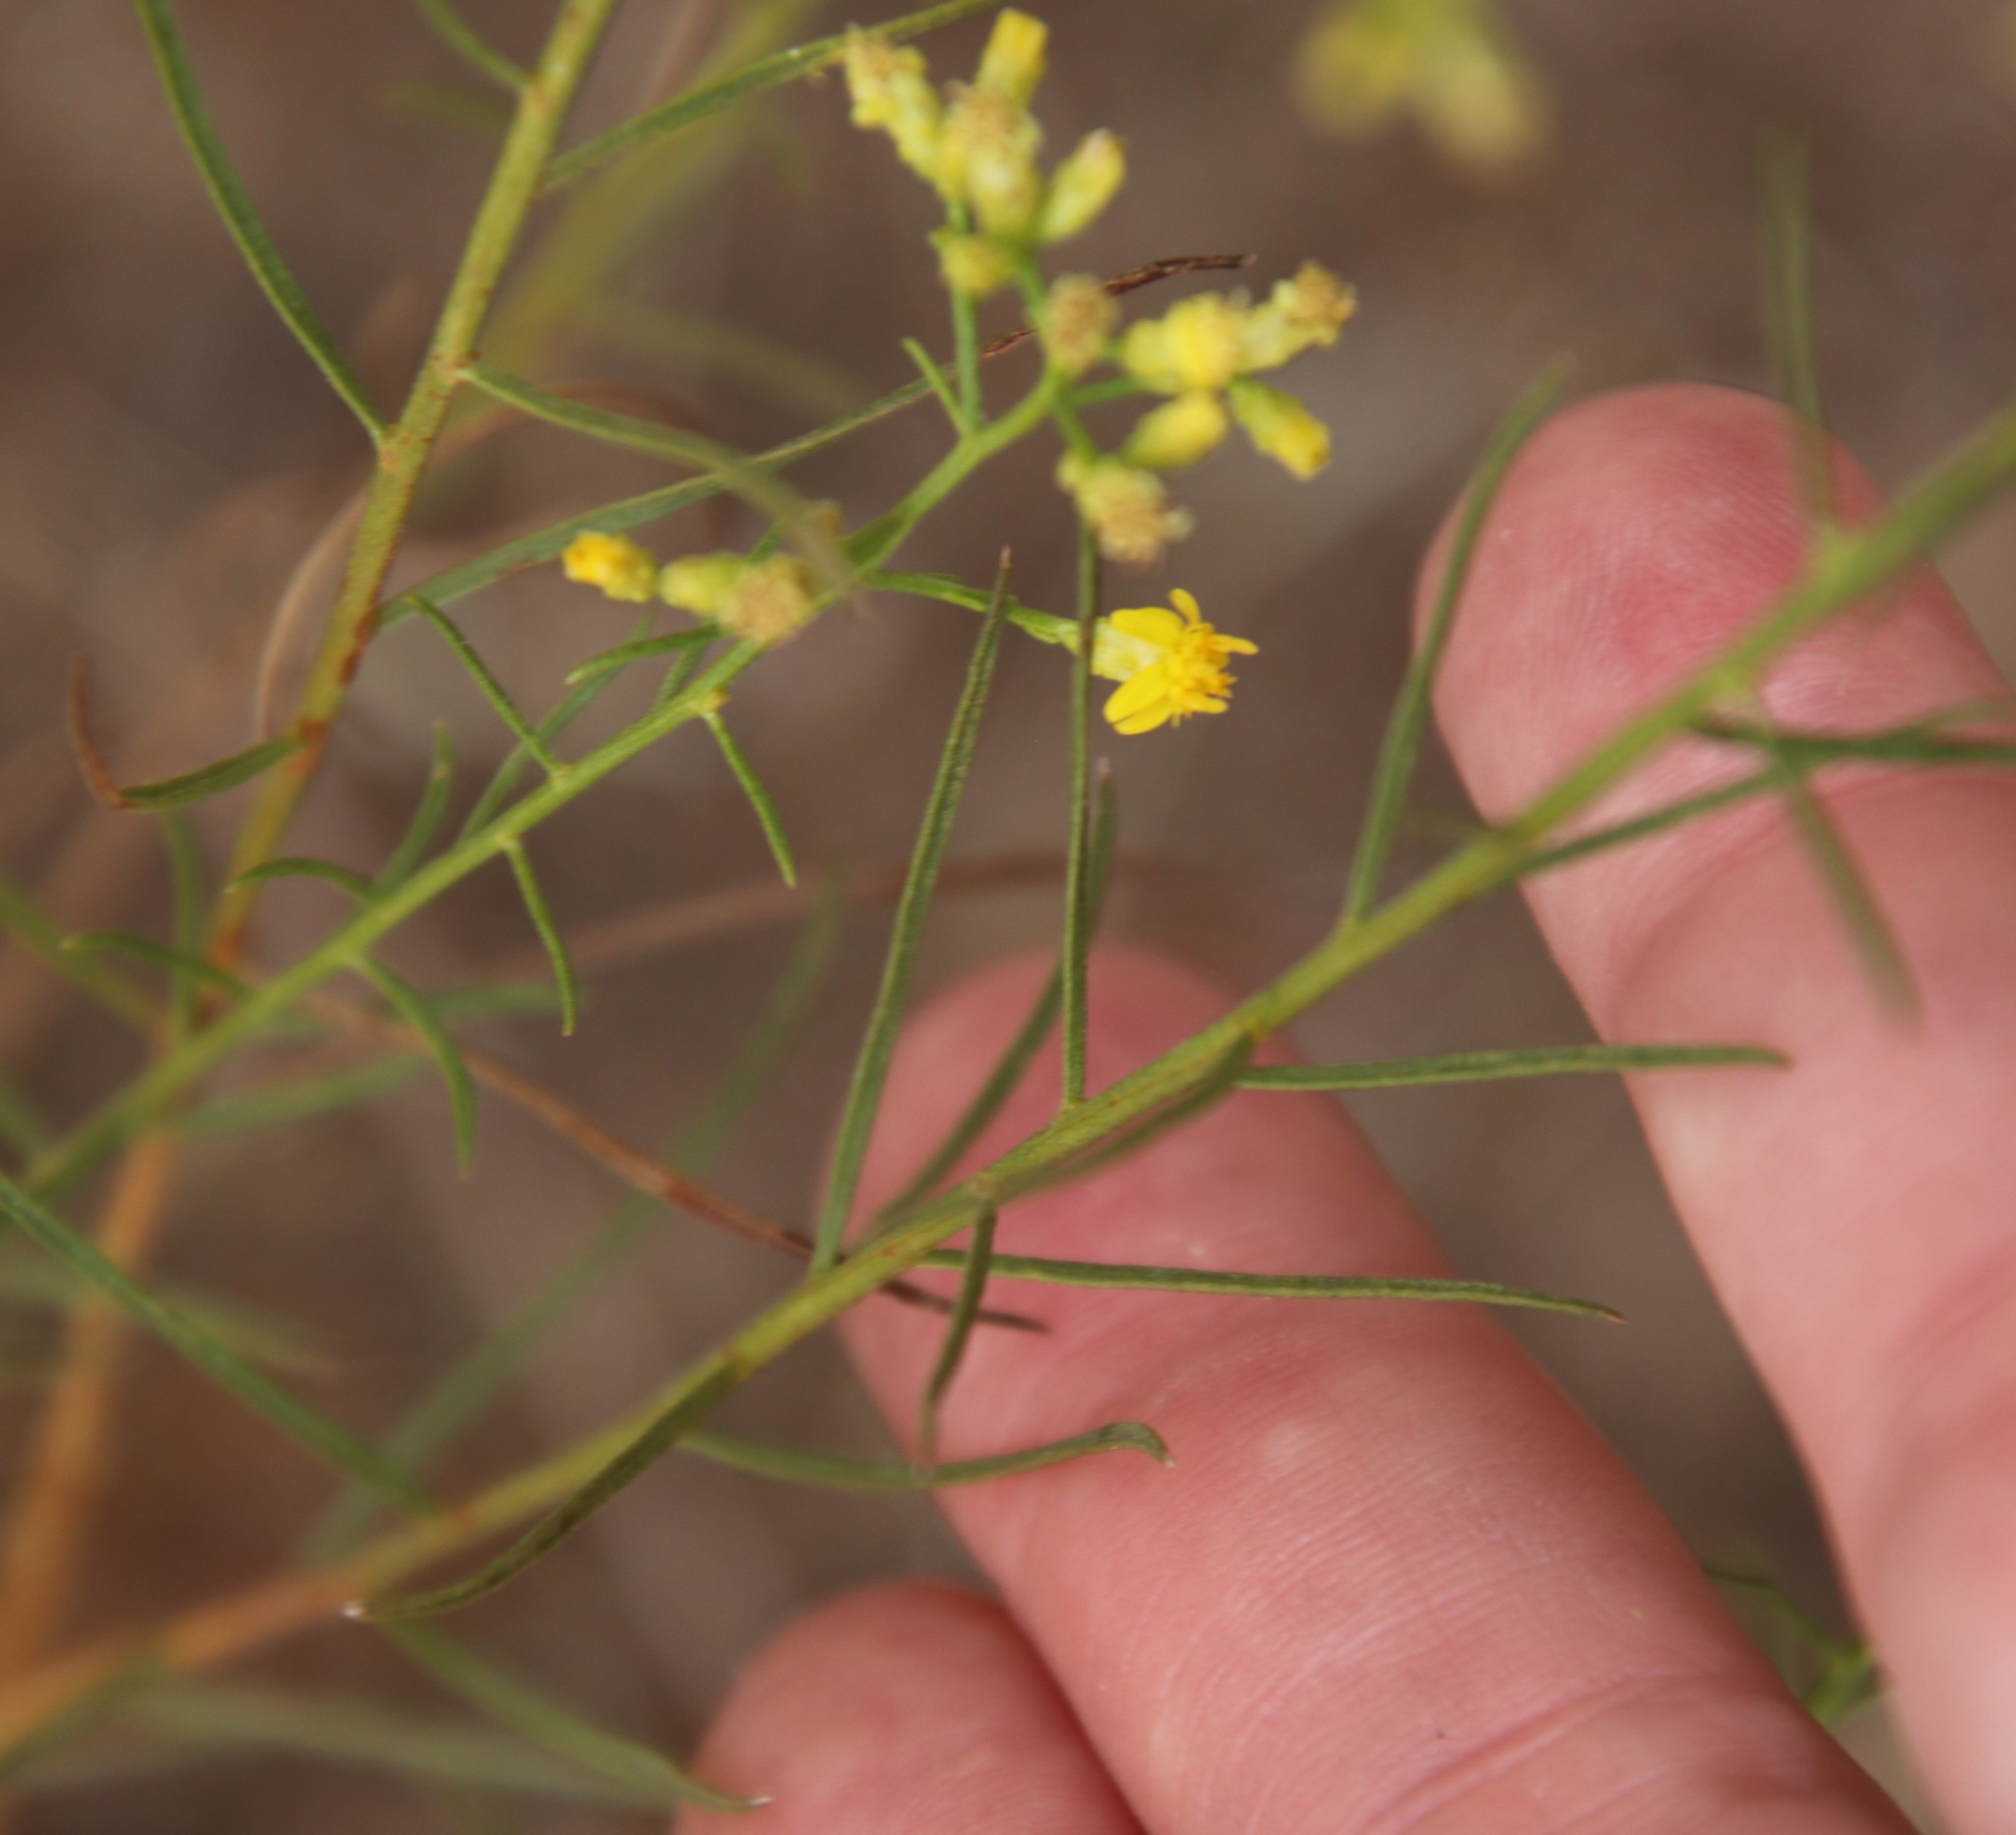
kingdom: Plantae
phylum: Tracheophyta
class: Magnoliopsida
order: Asterales
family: Asteraceae
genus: Gutierrezia
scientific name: Gutierrezia sarothrae
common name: Broom snakeweed
